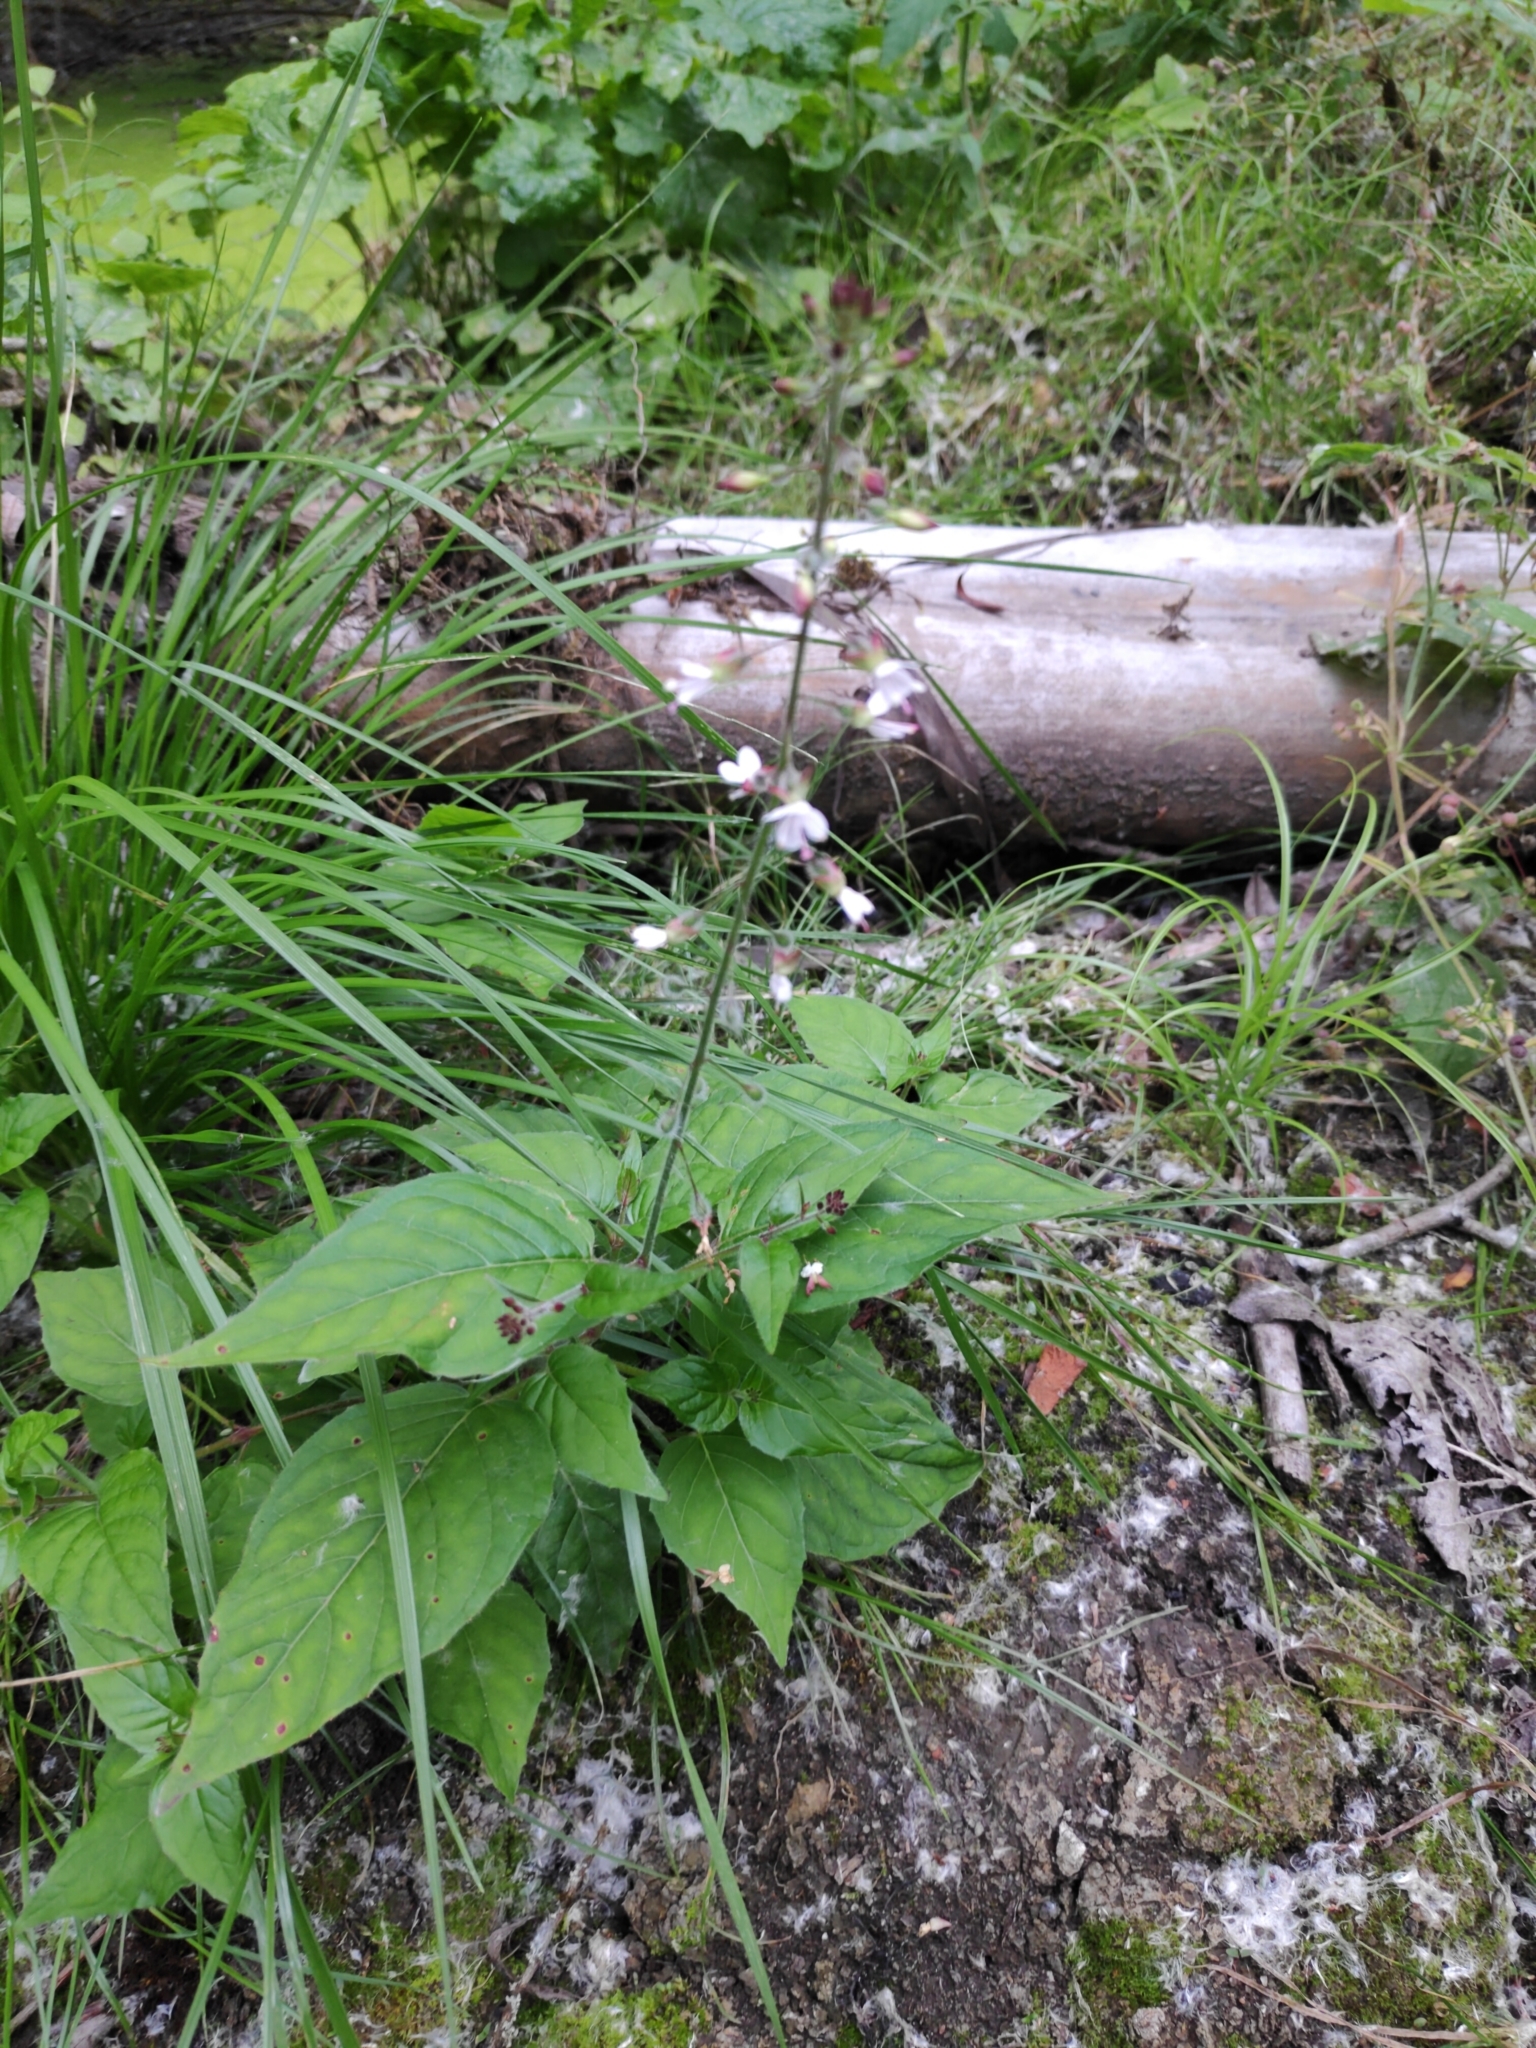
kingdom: Plantae
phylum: Tracheophyta
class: Magnoliopsida
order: Myrtales
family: Onagraceae
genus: Circaea
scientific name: Circaea lutetiana
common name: Enchanter's-nightshade
